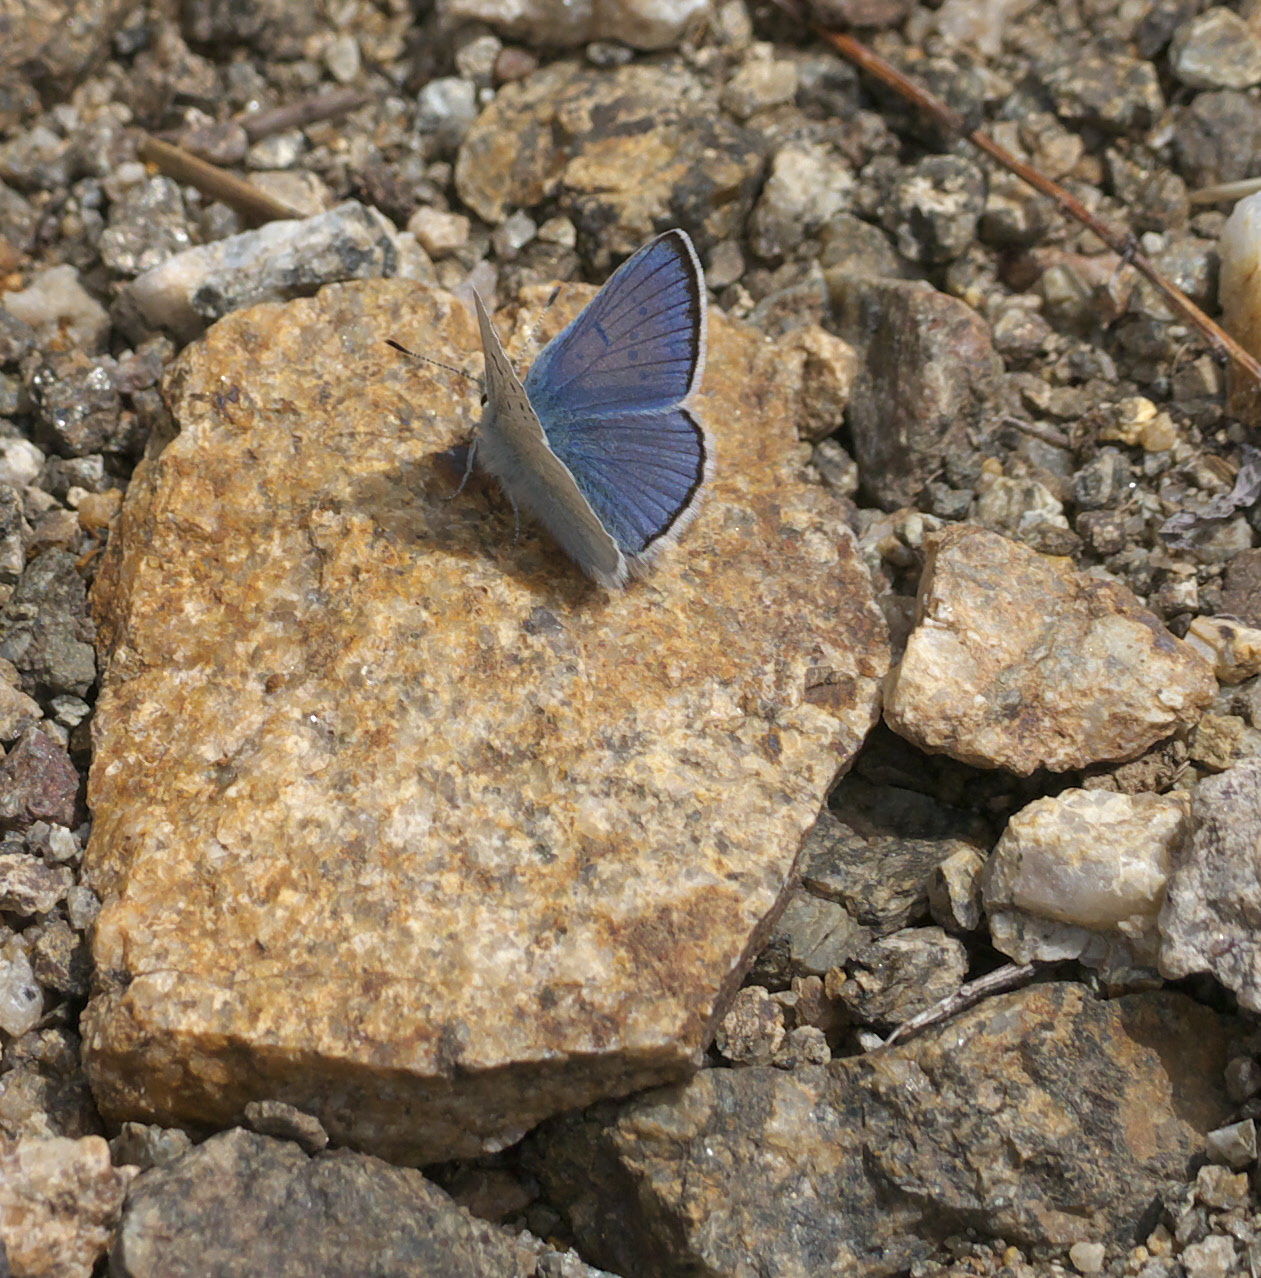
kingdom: Animalia
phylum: Arthropoda
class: Insecta
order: Lepidoptera
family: Lycaenidae
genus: Tharsalea
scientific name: Tharsalea heteronea
